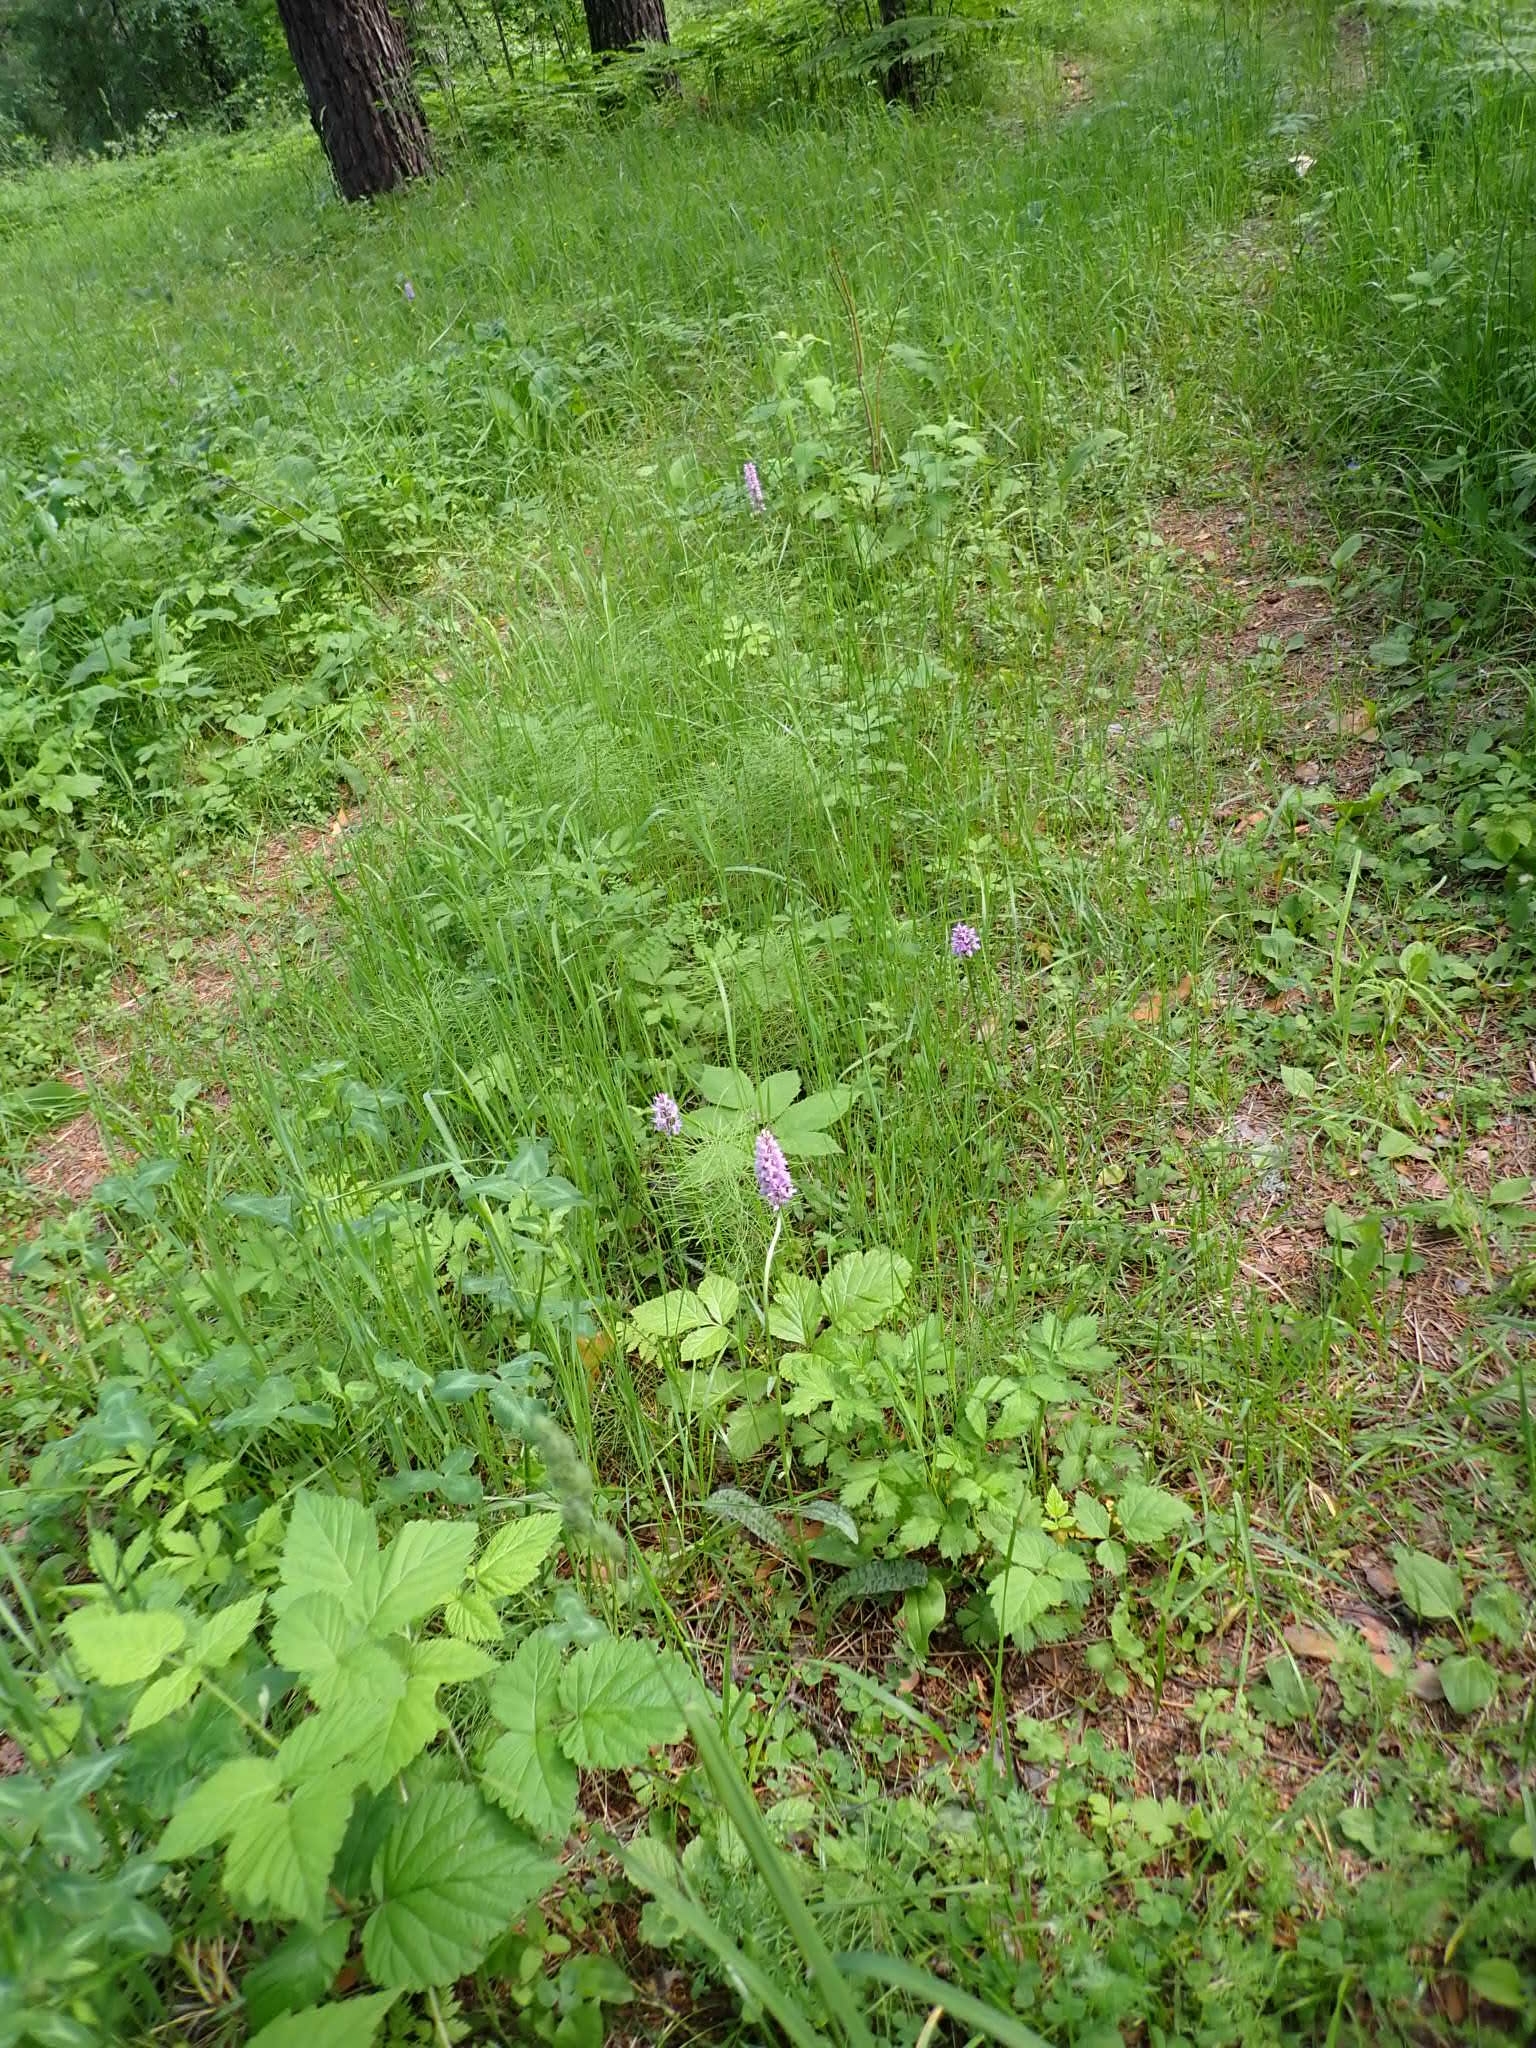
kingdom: Plantae
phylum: Tracheophyta
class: Liliopsida
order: Asparagales
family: Orchidaceae
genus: Dactylorhiza
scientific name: Dactylorhiza maculata
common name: Heath spotted-orchid
